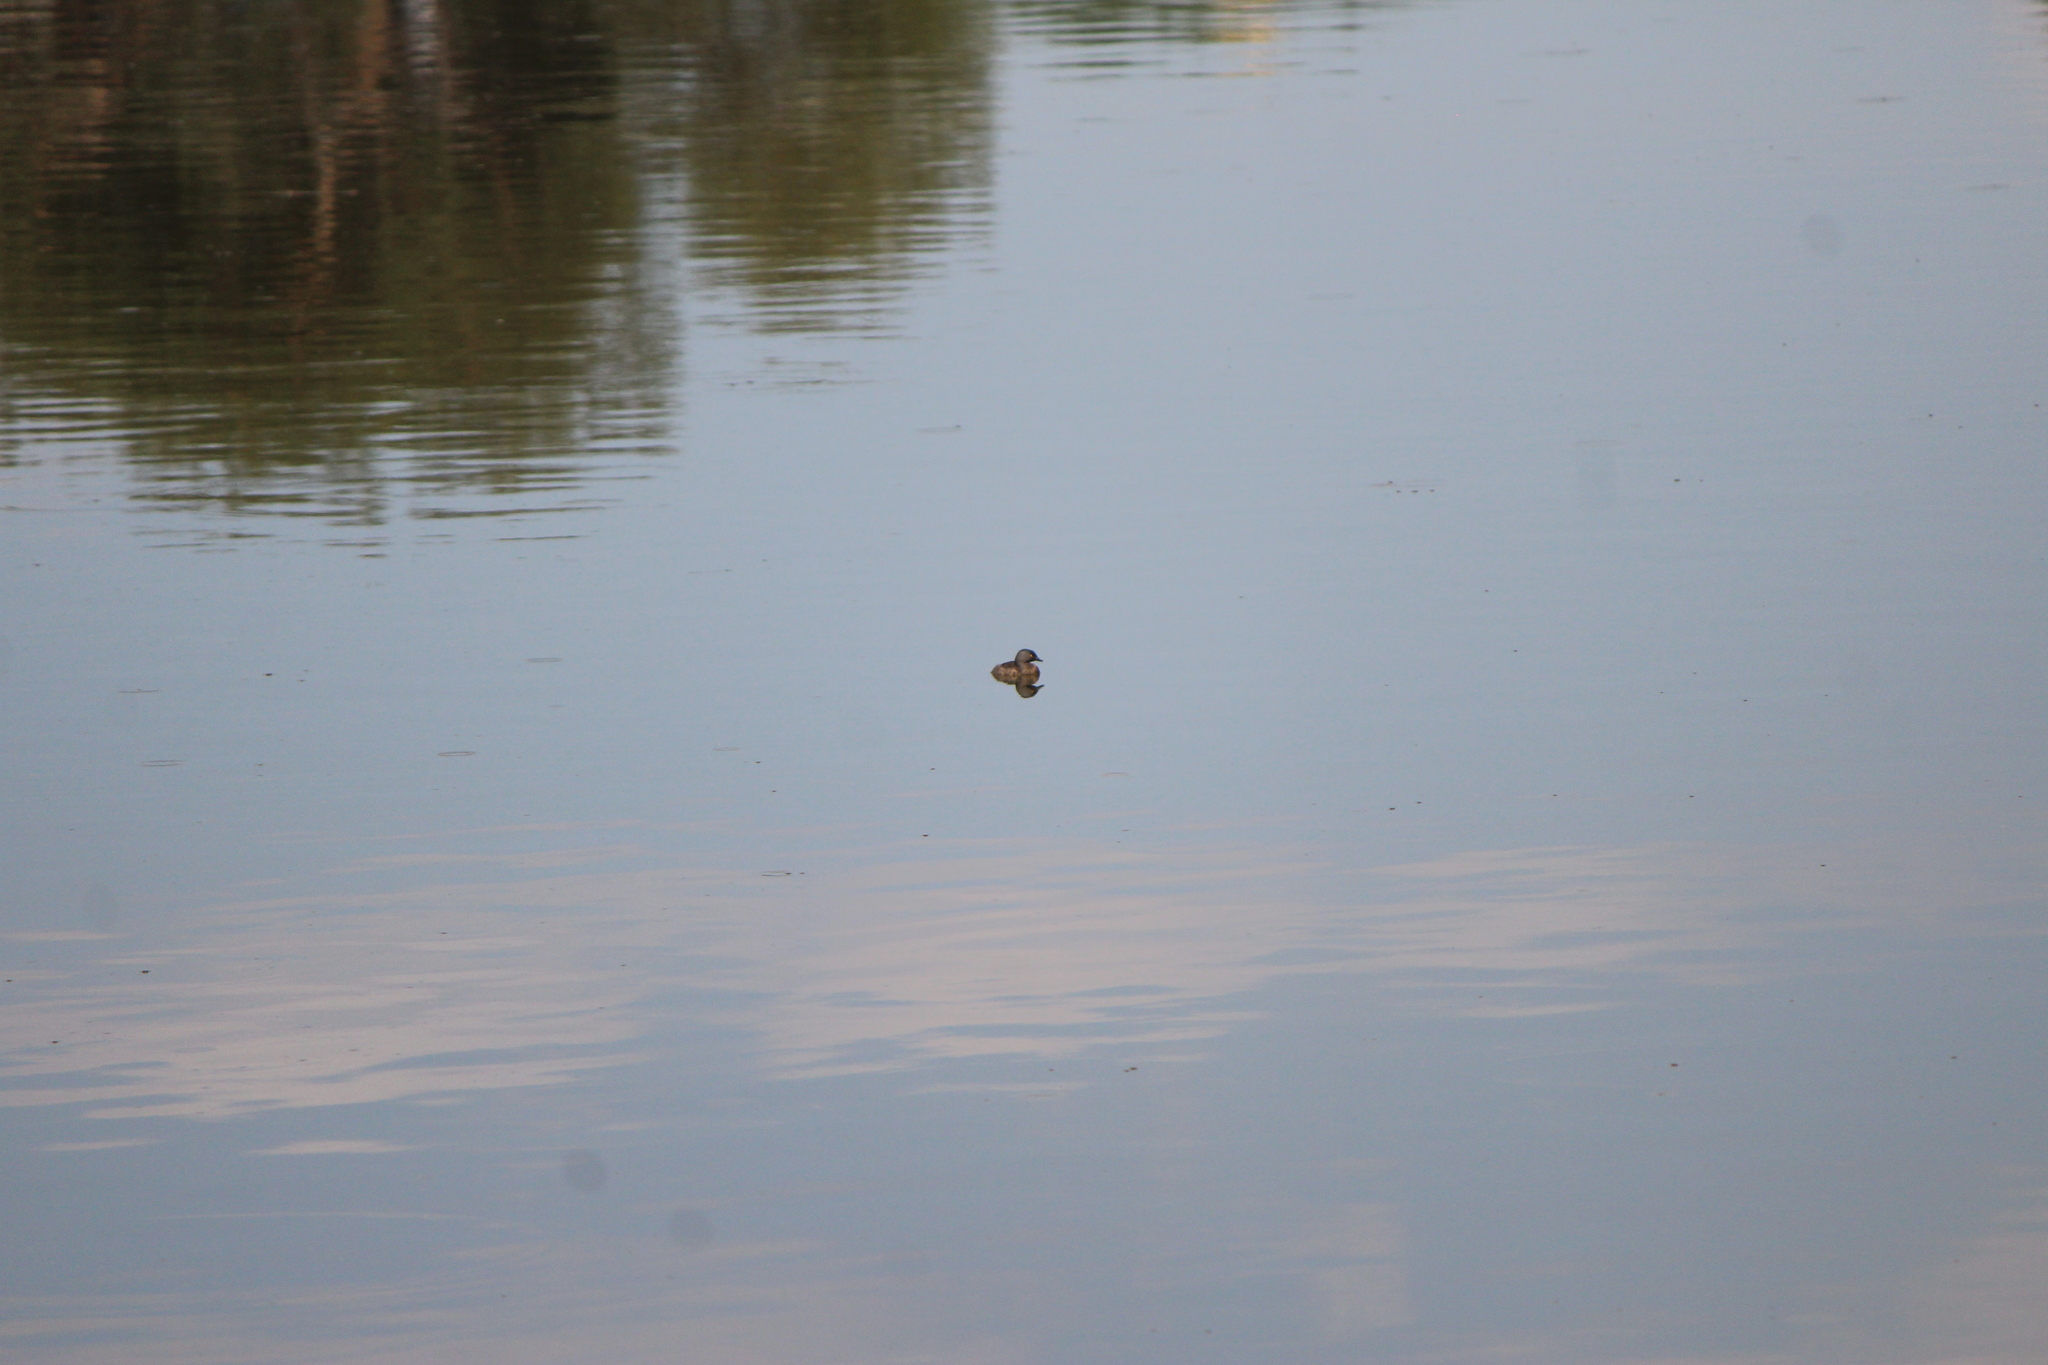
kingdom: Animalia
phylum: Chordata
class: Aves
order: Podicipediformes
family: Podicipedidae
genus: Tachybaptus
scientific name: Tachybaptus dominicus
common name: Least grebe
